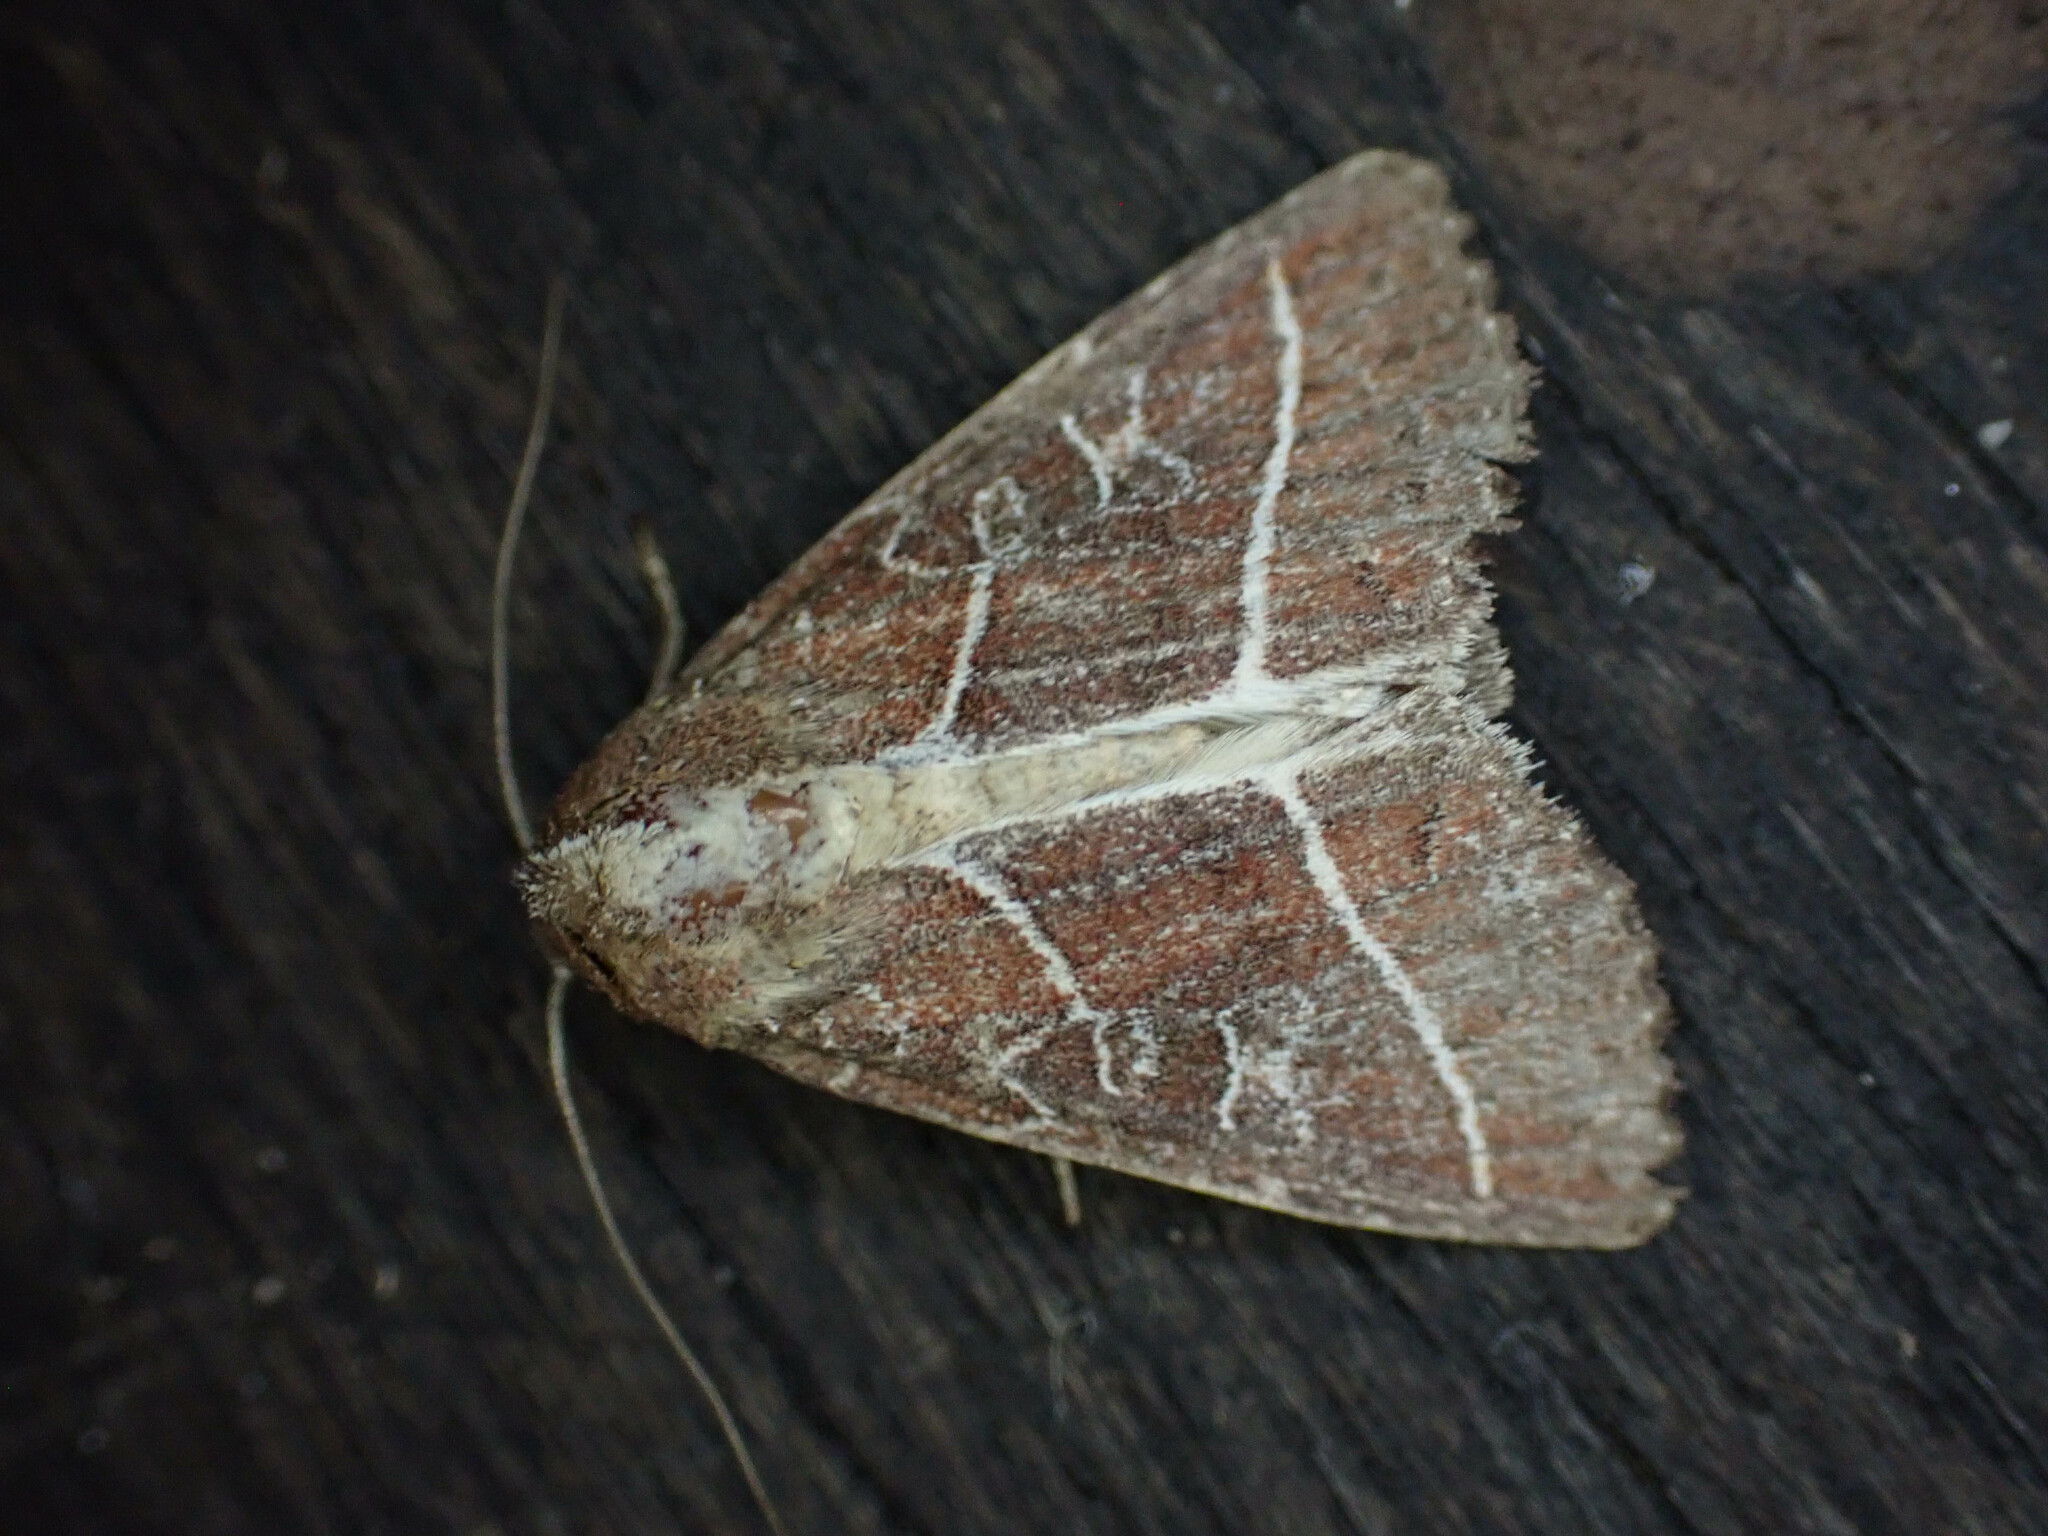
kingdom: Animalia
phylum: Arthropoda
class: Insecta
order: Lepidoptera
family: Noctuidae
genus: Perigea
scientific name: Perigea
